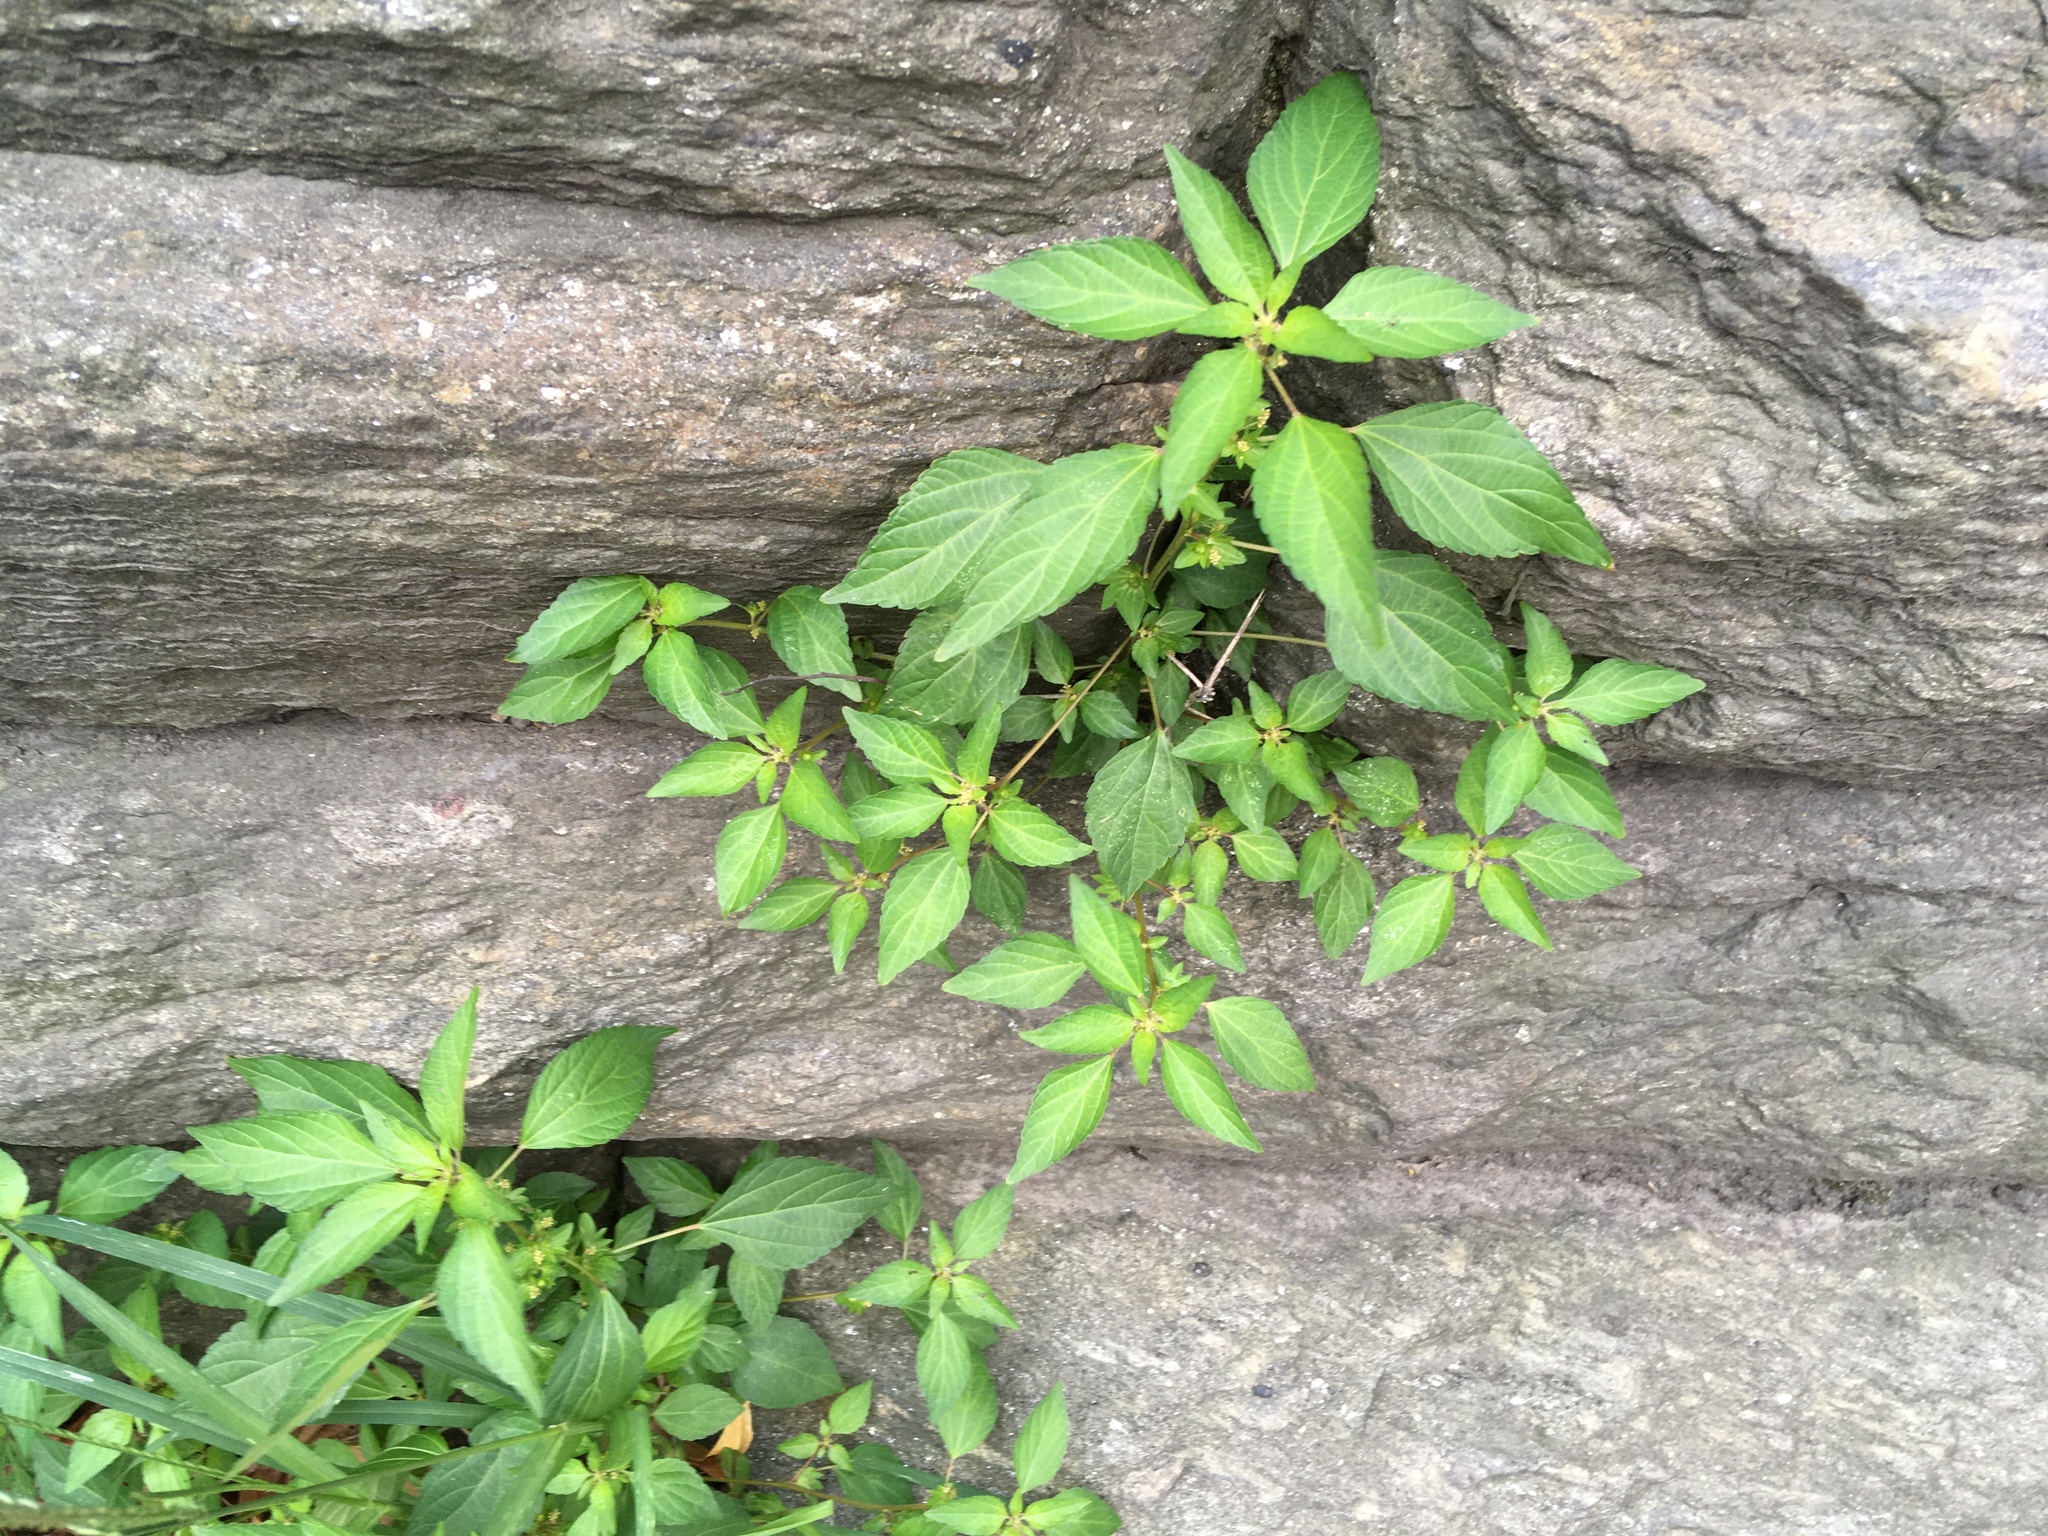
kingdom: Plantae
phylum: Tracheophyta
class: Magnoliopsida
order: Malpighiales
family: Euphorbiaceae
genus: Acalypha
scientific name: Acalypha rhomboidea
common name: Rhombic copperleaf
